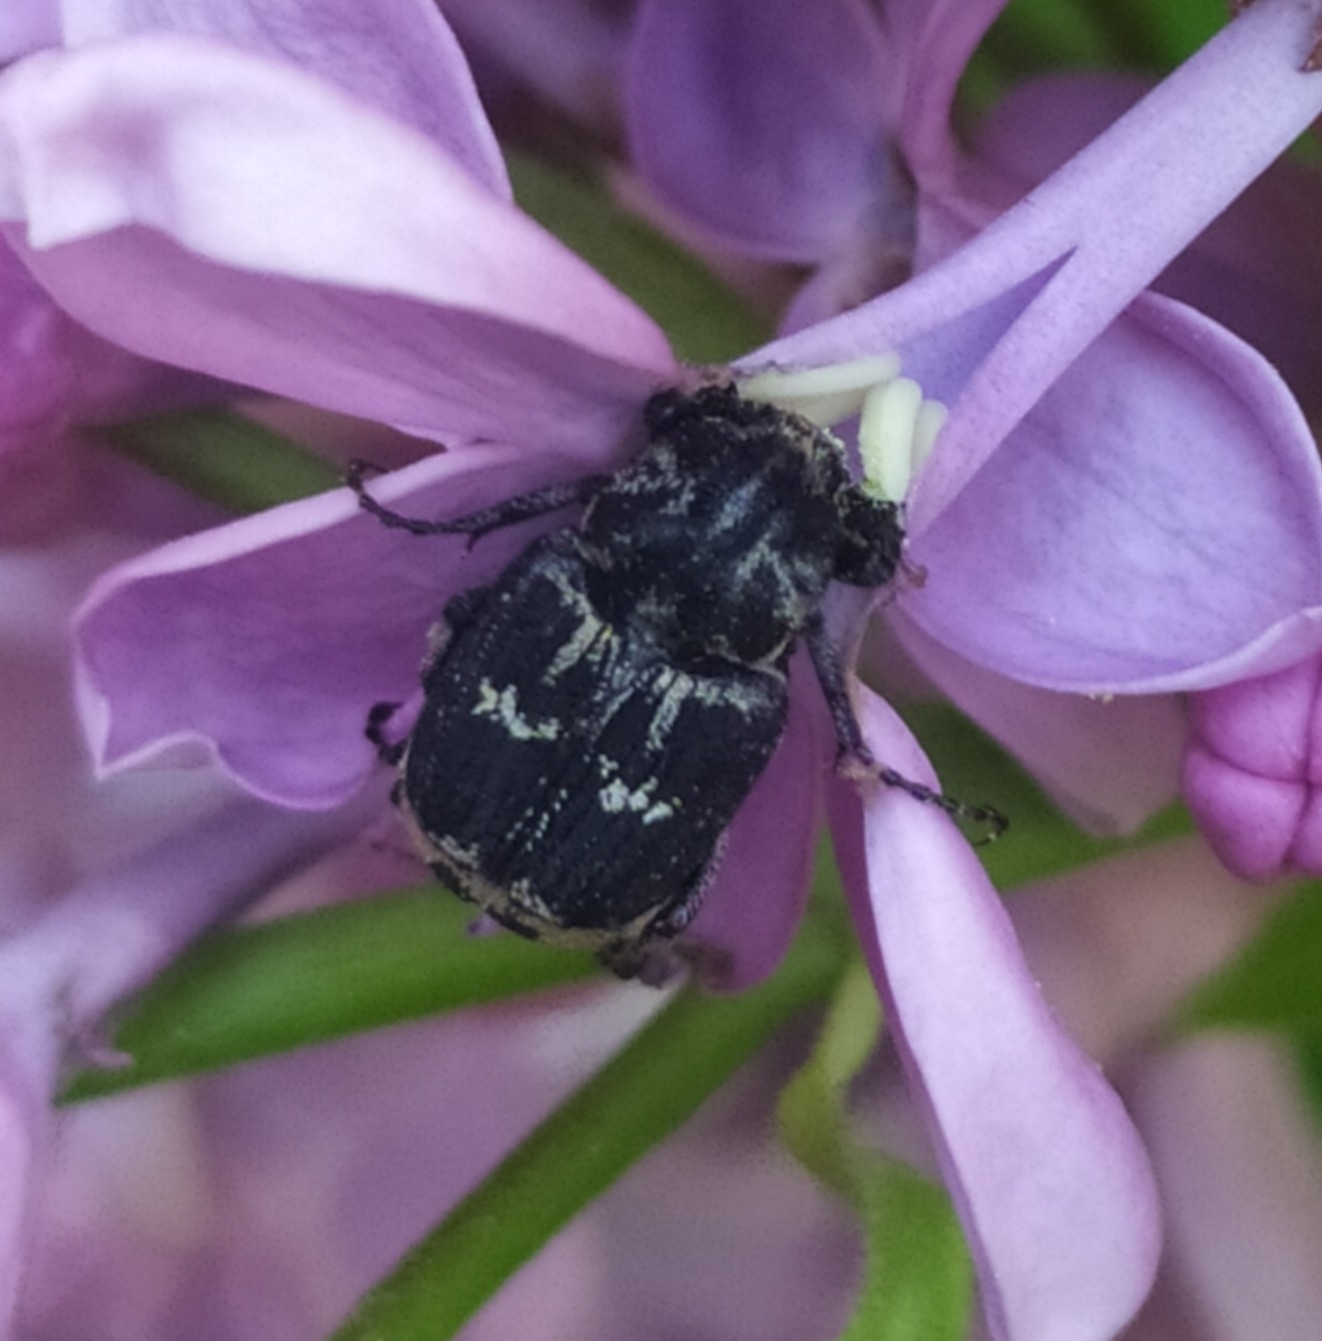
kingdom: Animalia
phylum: Arthropoda
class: Insecta
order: Coleoptera
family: Scarabaeidae
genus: Valgus
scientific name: Valgus hemipterus
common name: Bug flower chafer
